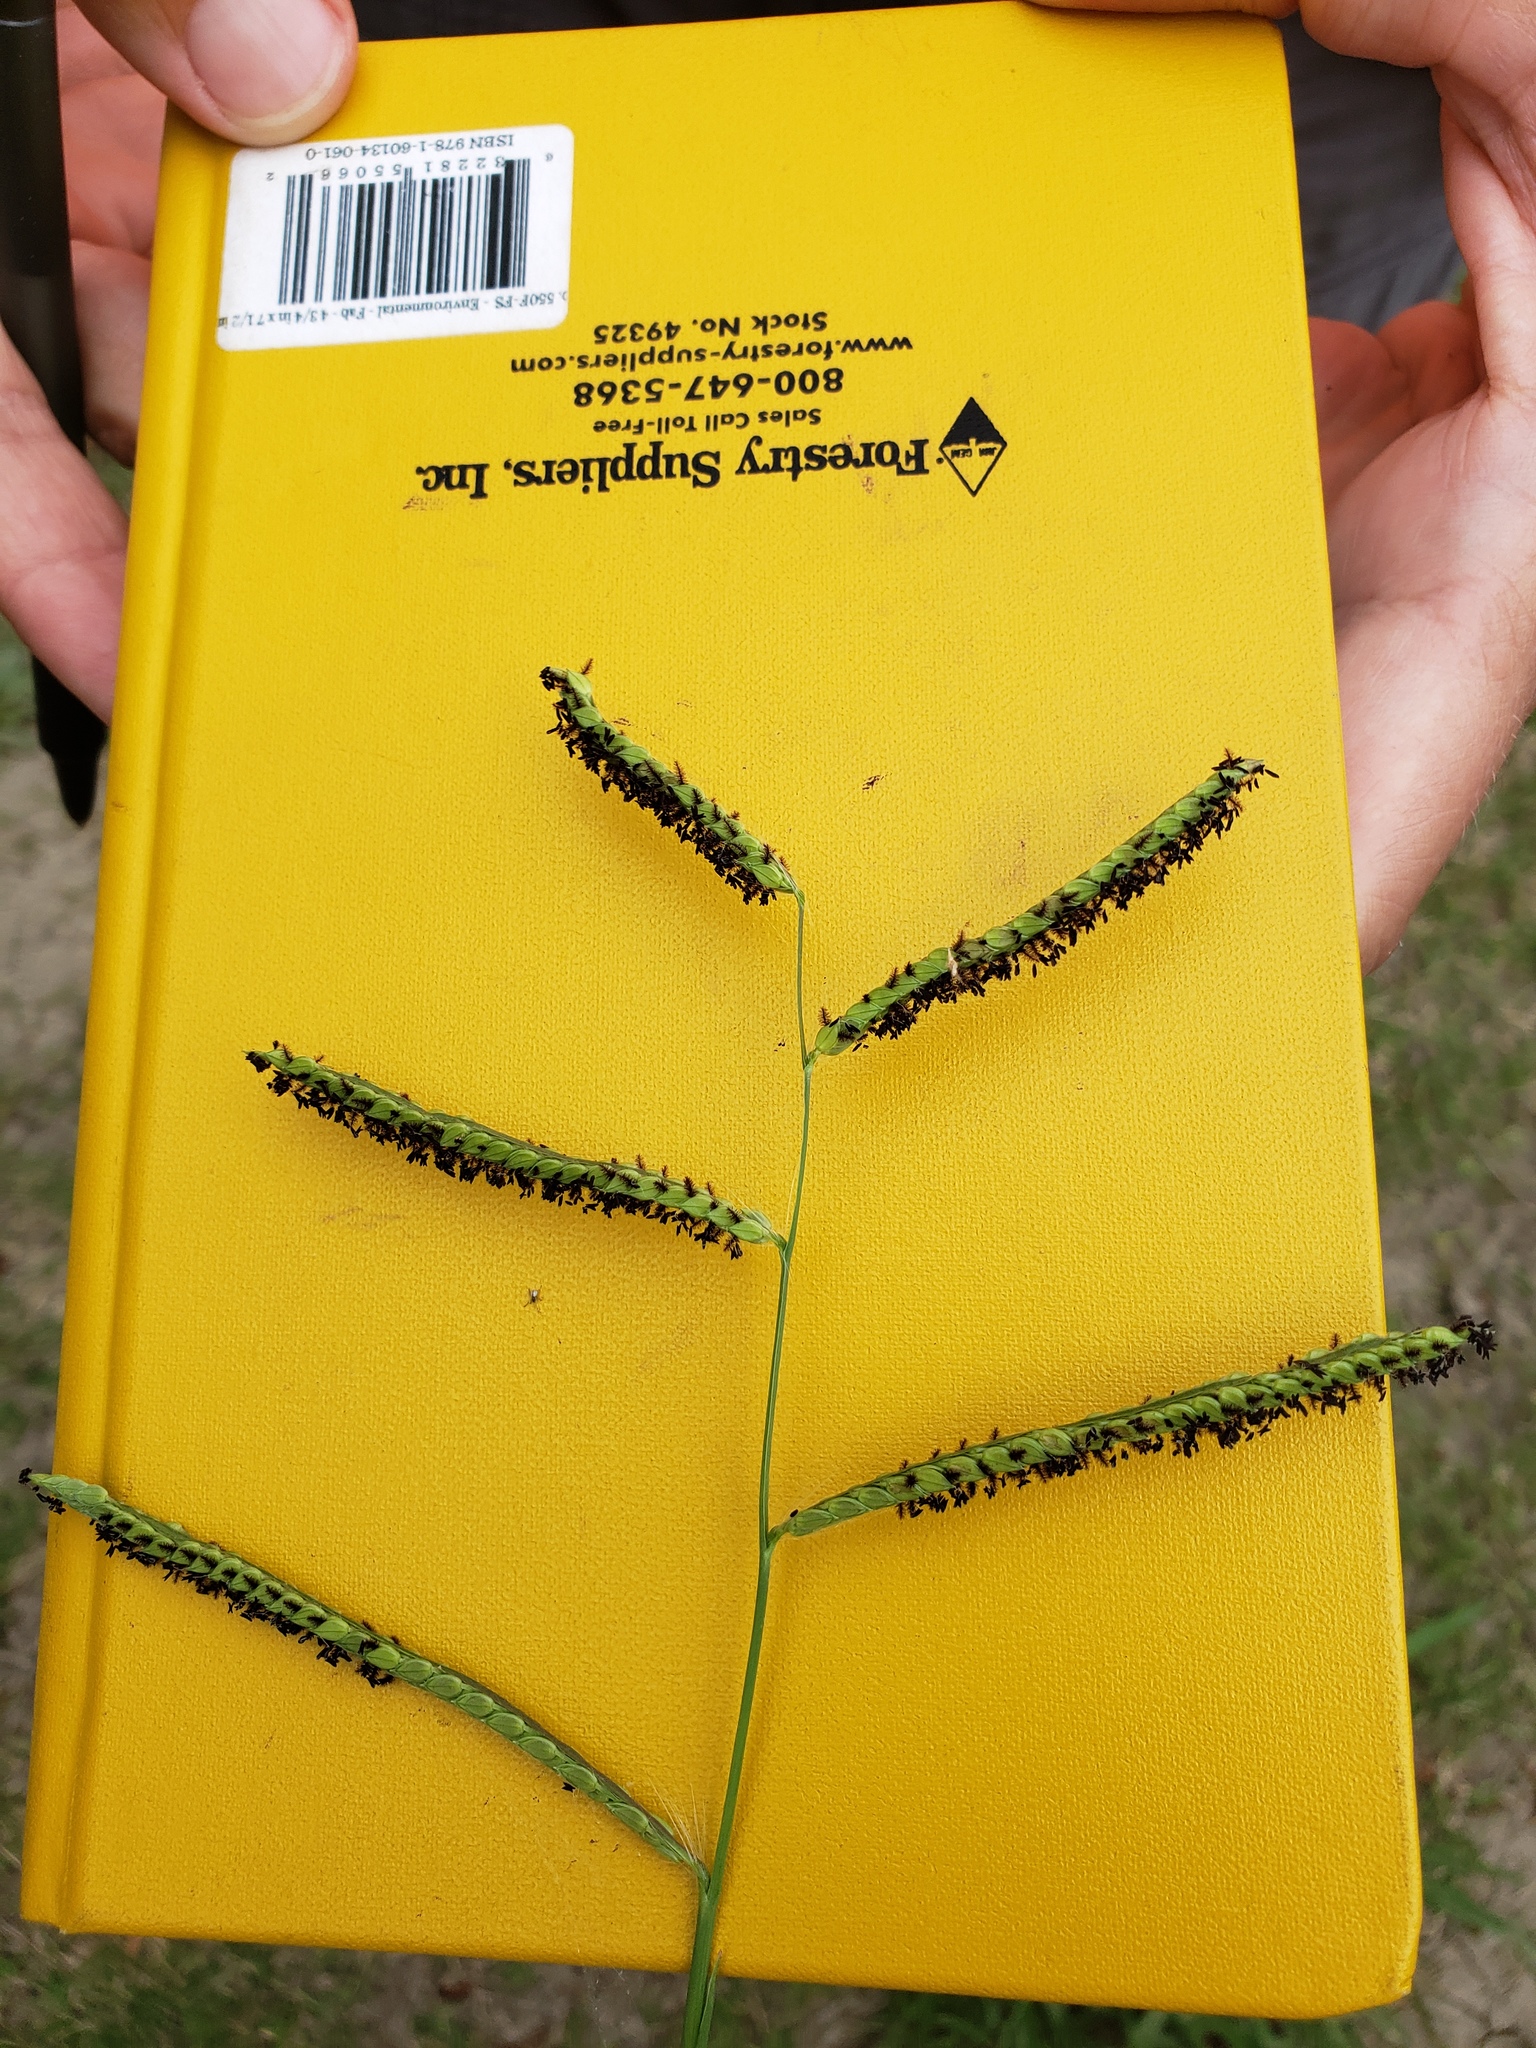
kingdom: Plantae
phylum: Tracheophyta
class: Liliopsida
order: Poales
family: Poaceae
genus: Paspalum
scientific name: Paspalum dilatatum
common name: Dallisgrass
